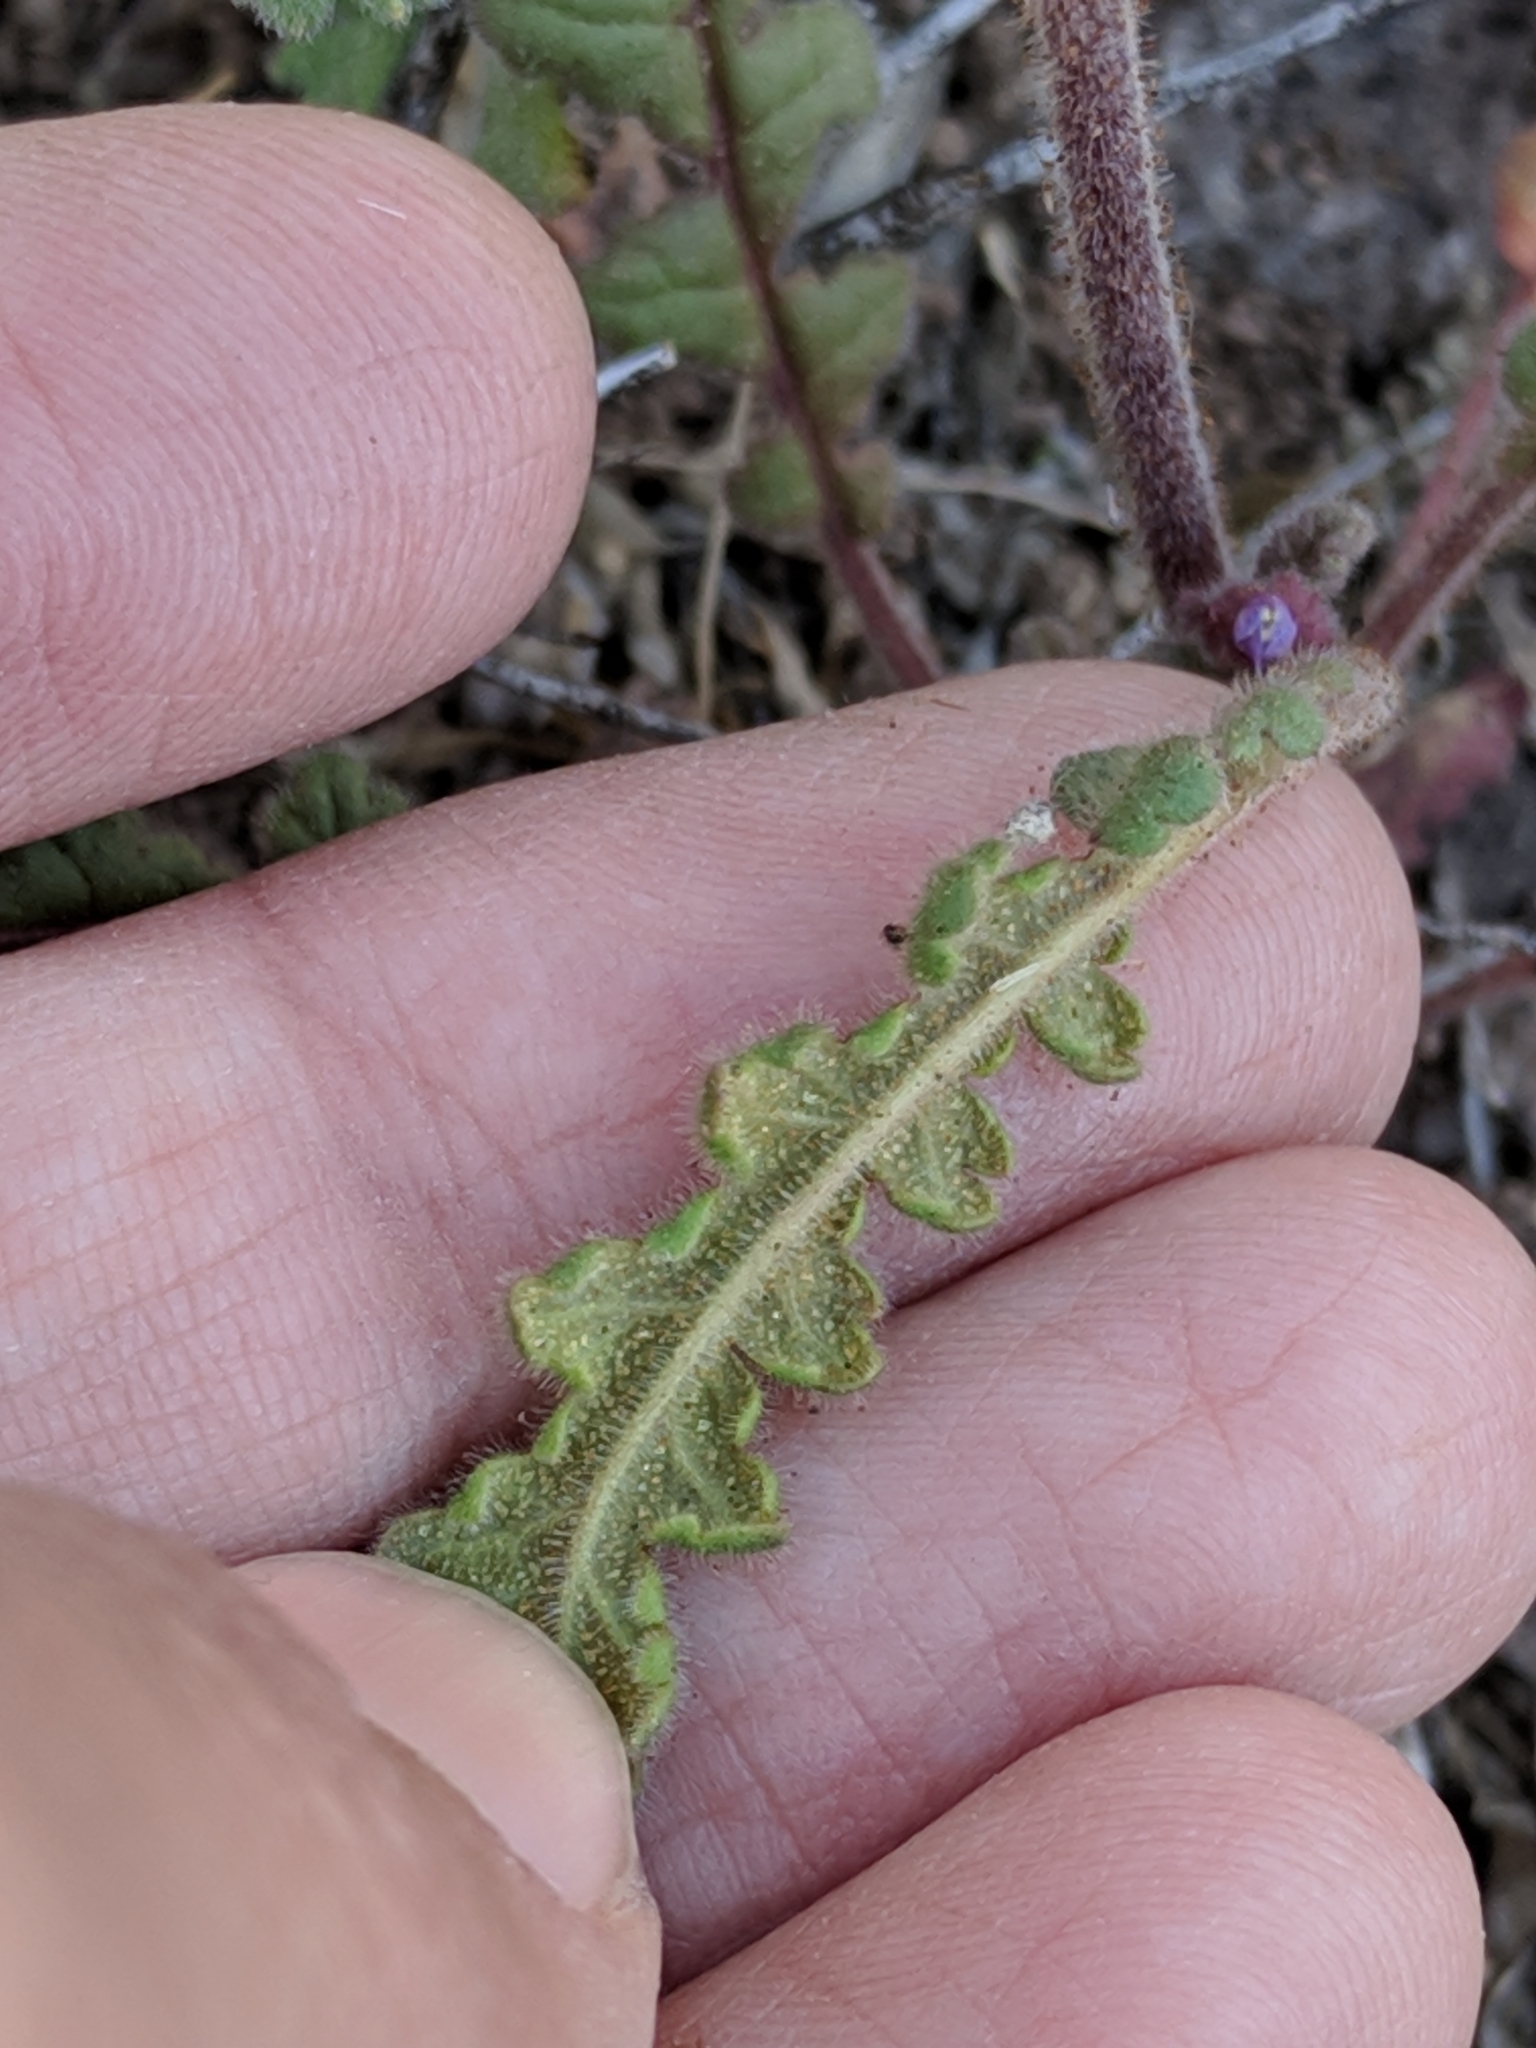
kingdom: Plantae
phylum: Tracheophyta
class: Magnoliopsida
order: Boraginales
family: Hydrophyllaceae
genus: Phacelia
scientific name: Phacelia coerulea
